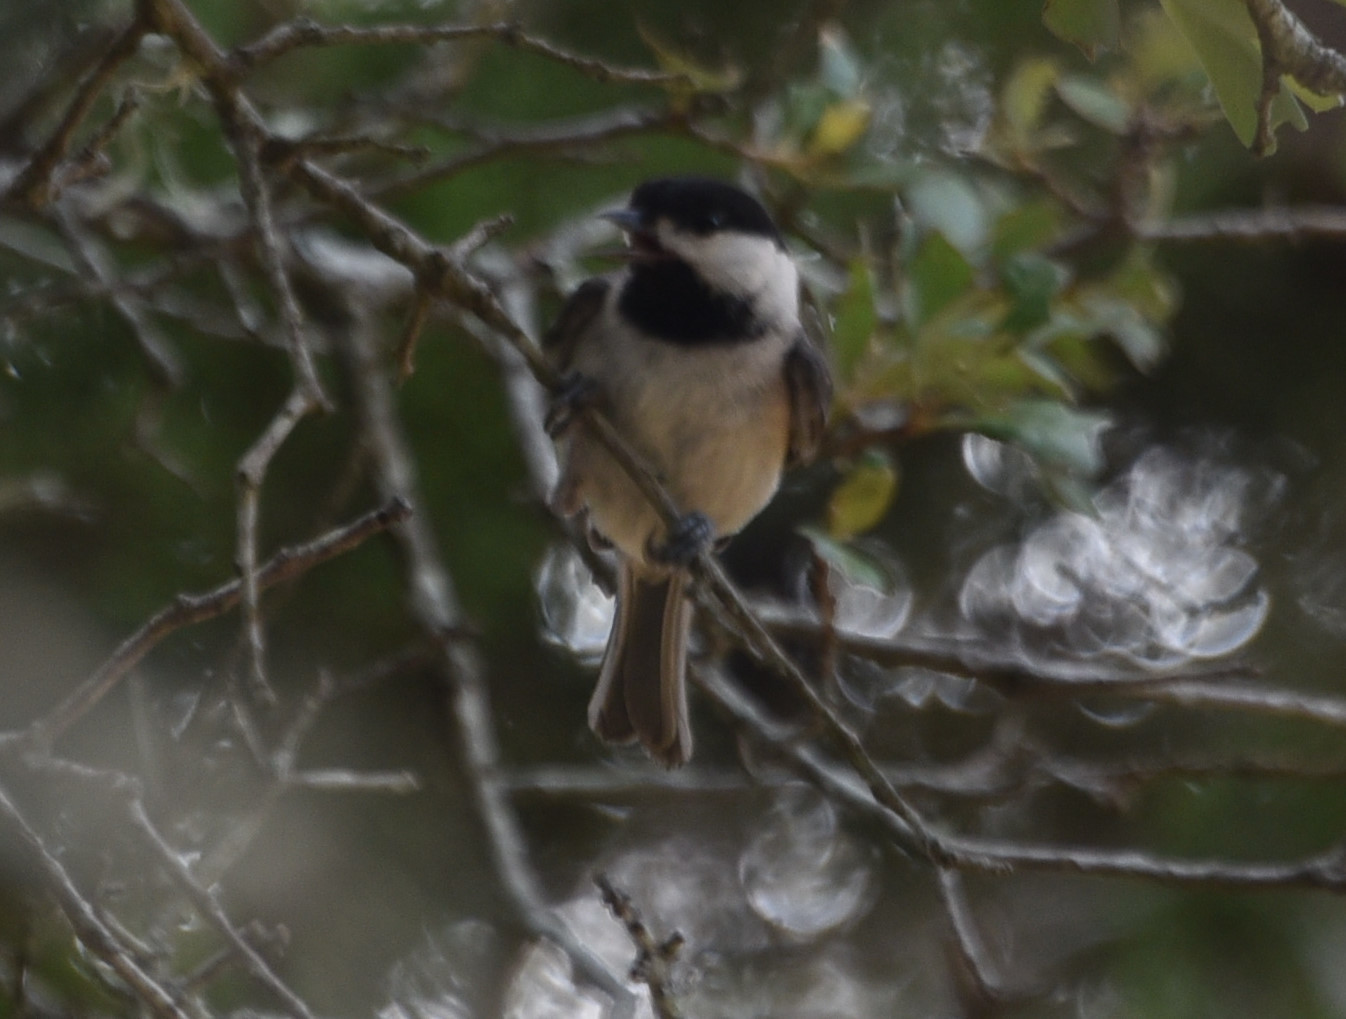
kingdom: Animalia
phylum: Chordata
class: Aves
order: Passeriformes
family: Paridae
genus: Poecile
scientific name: Poecile carolinensis
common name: Carolina chickadee
